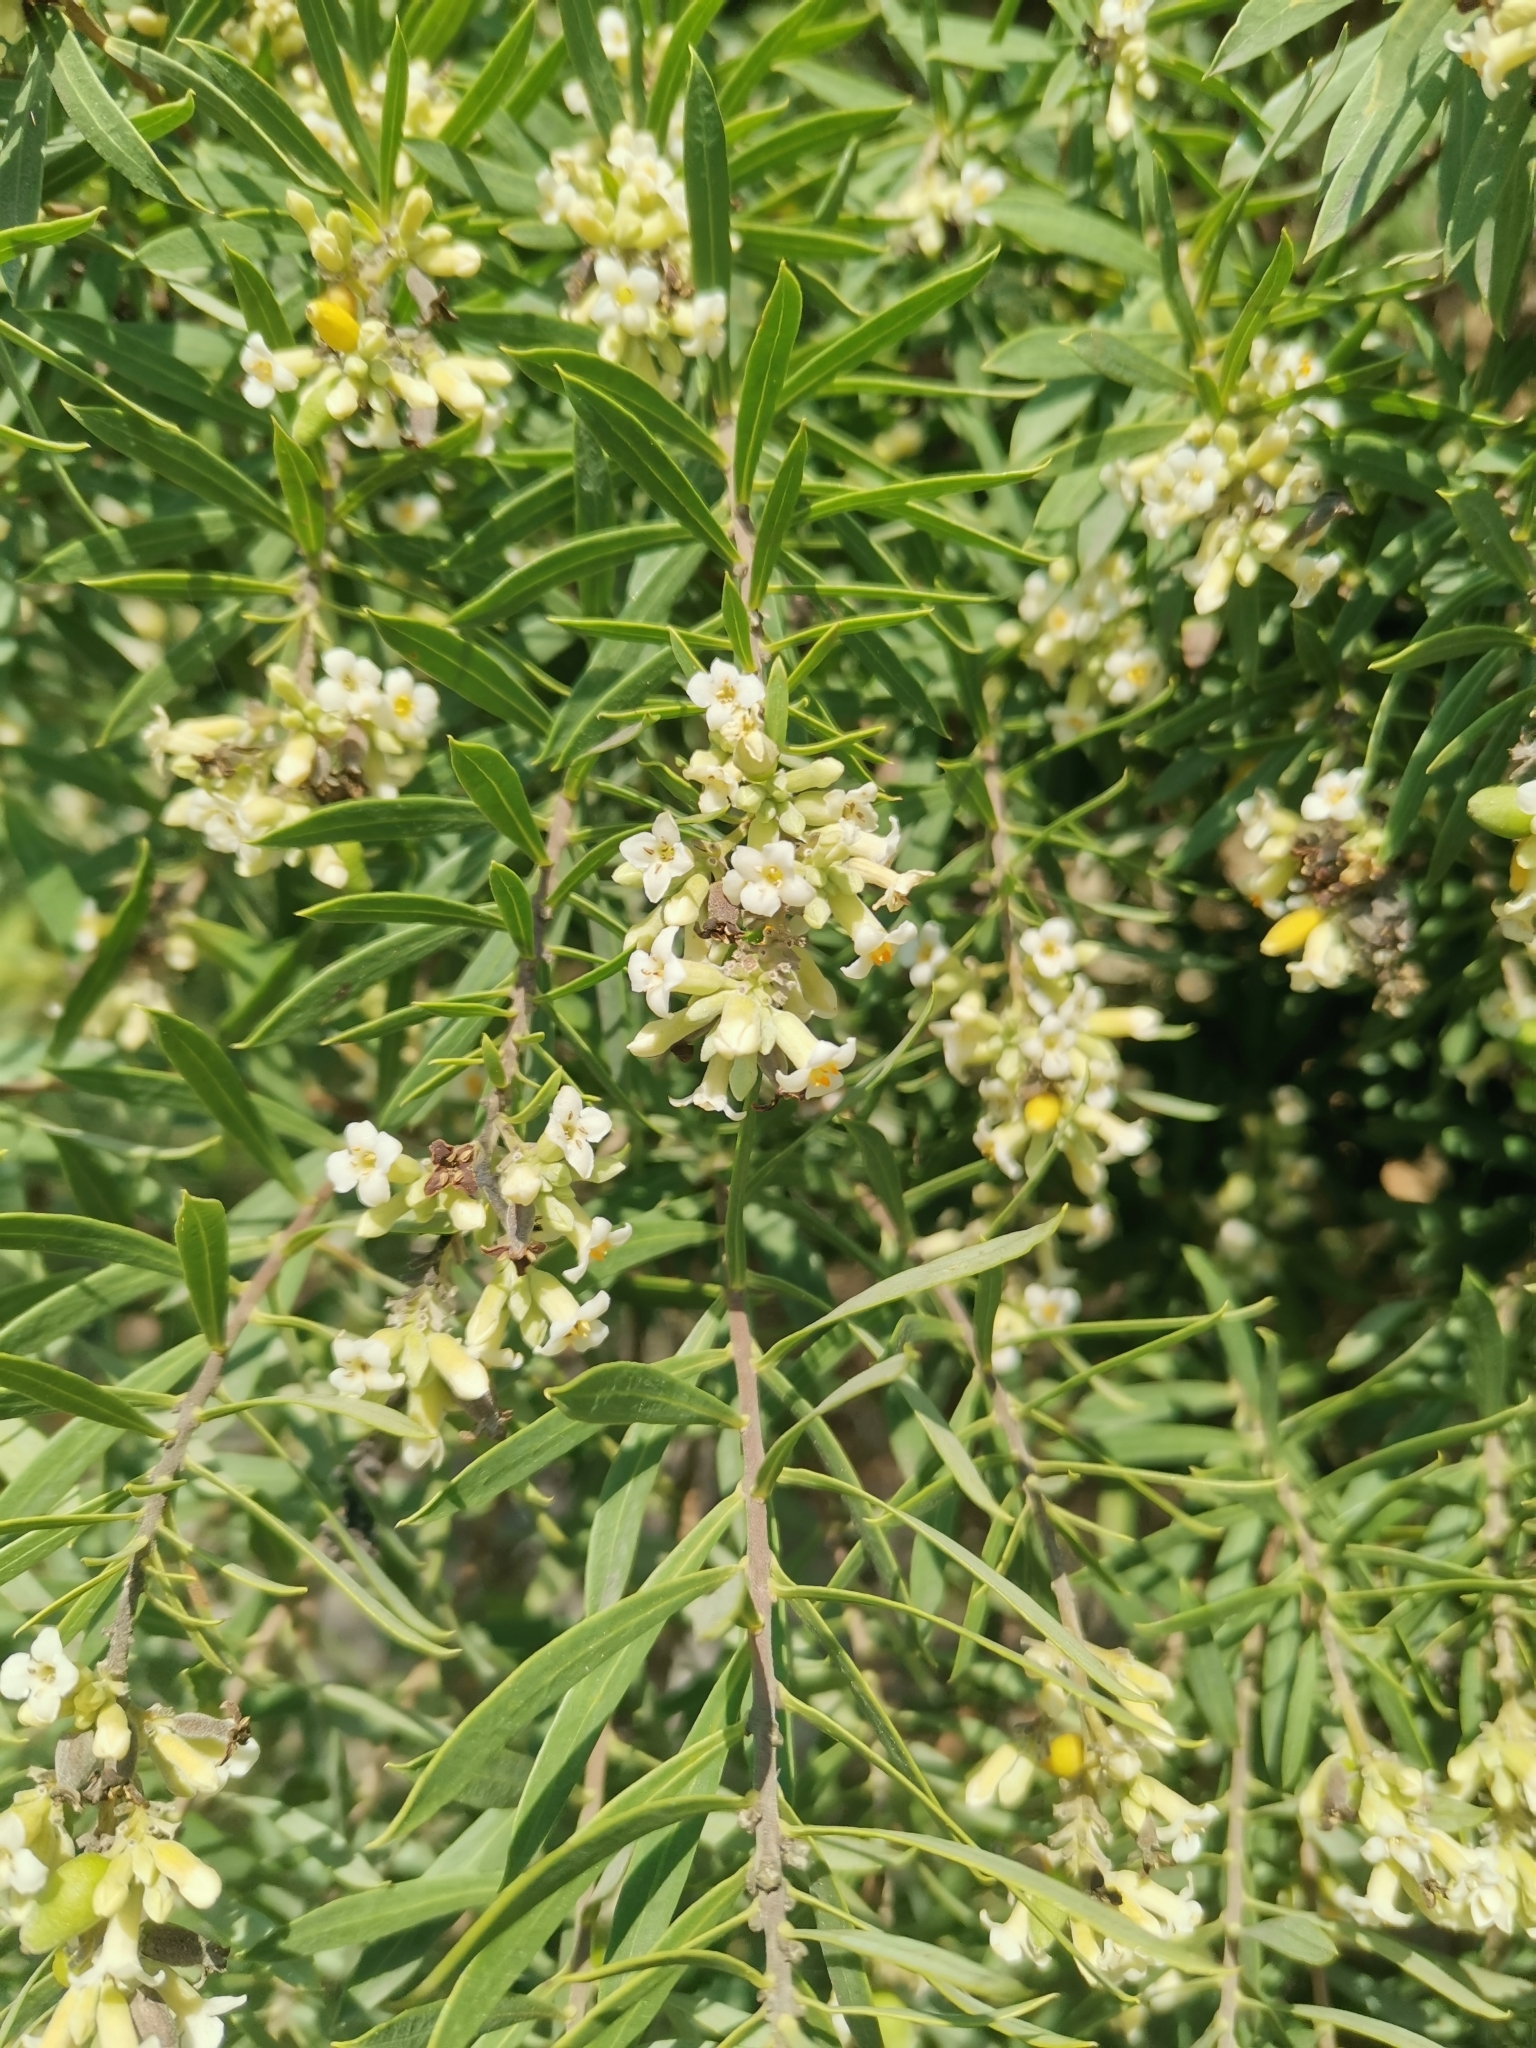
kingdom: Plantae
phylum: Tracheophyta
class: Magnoliopsida
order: Malvales
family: Thymelaeaceae
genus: Daphne
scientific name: Daphne gnidium
